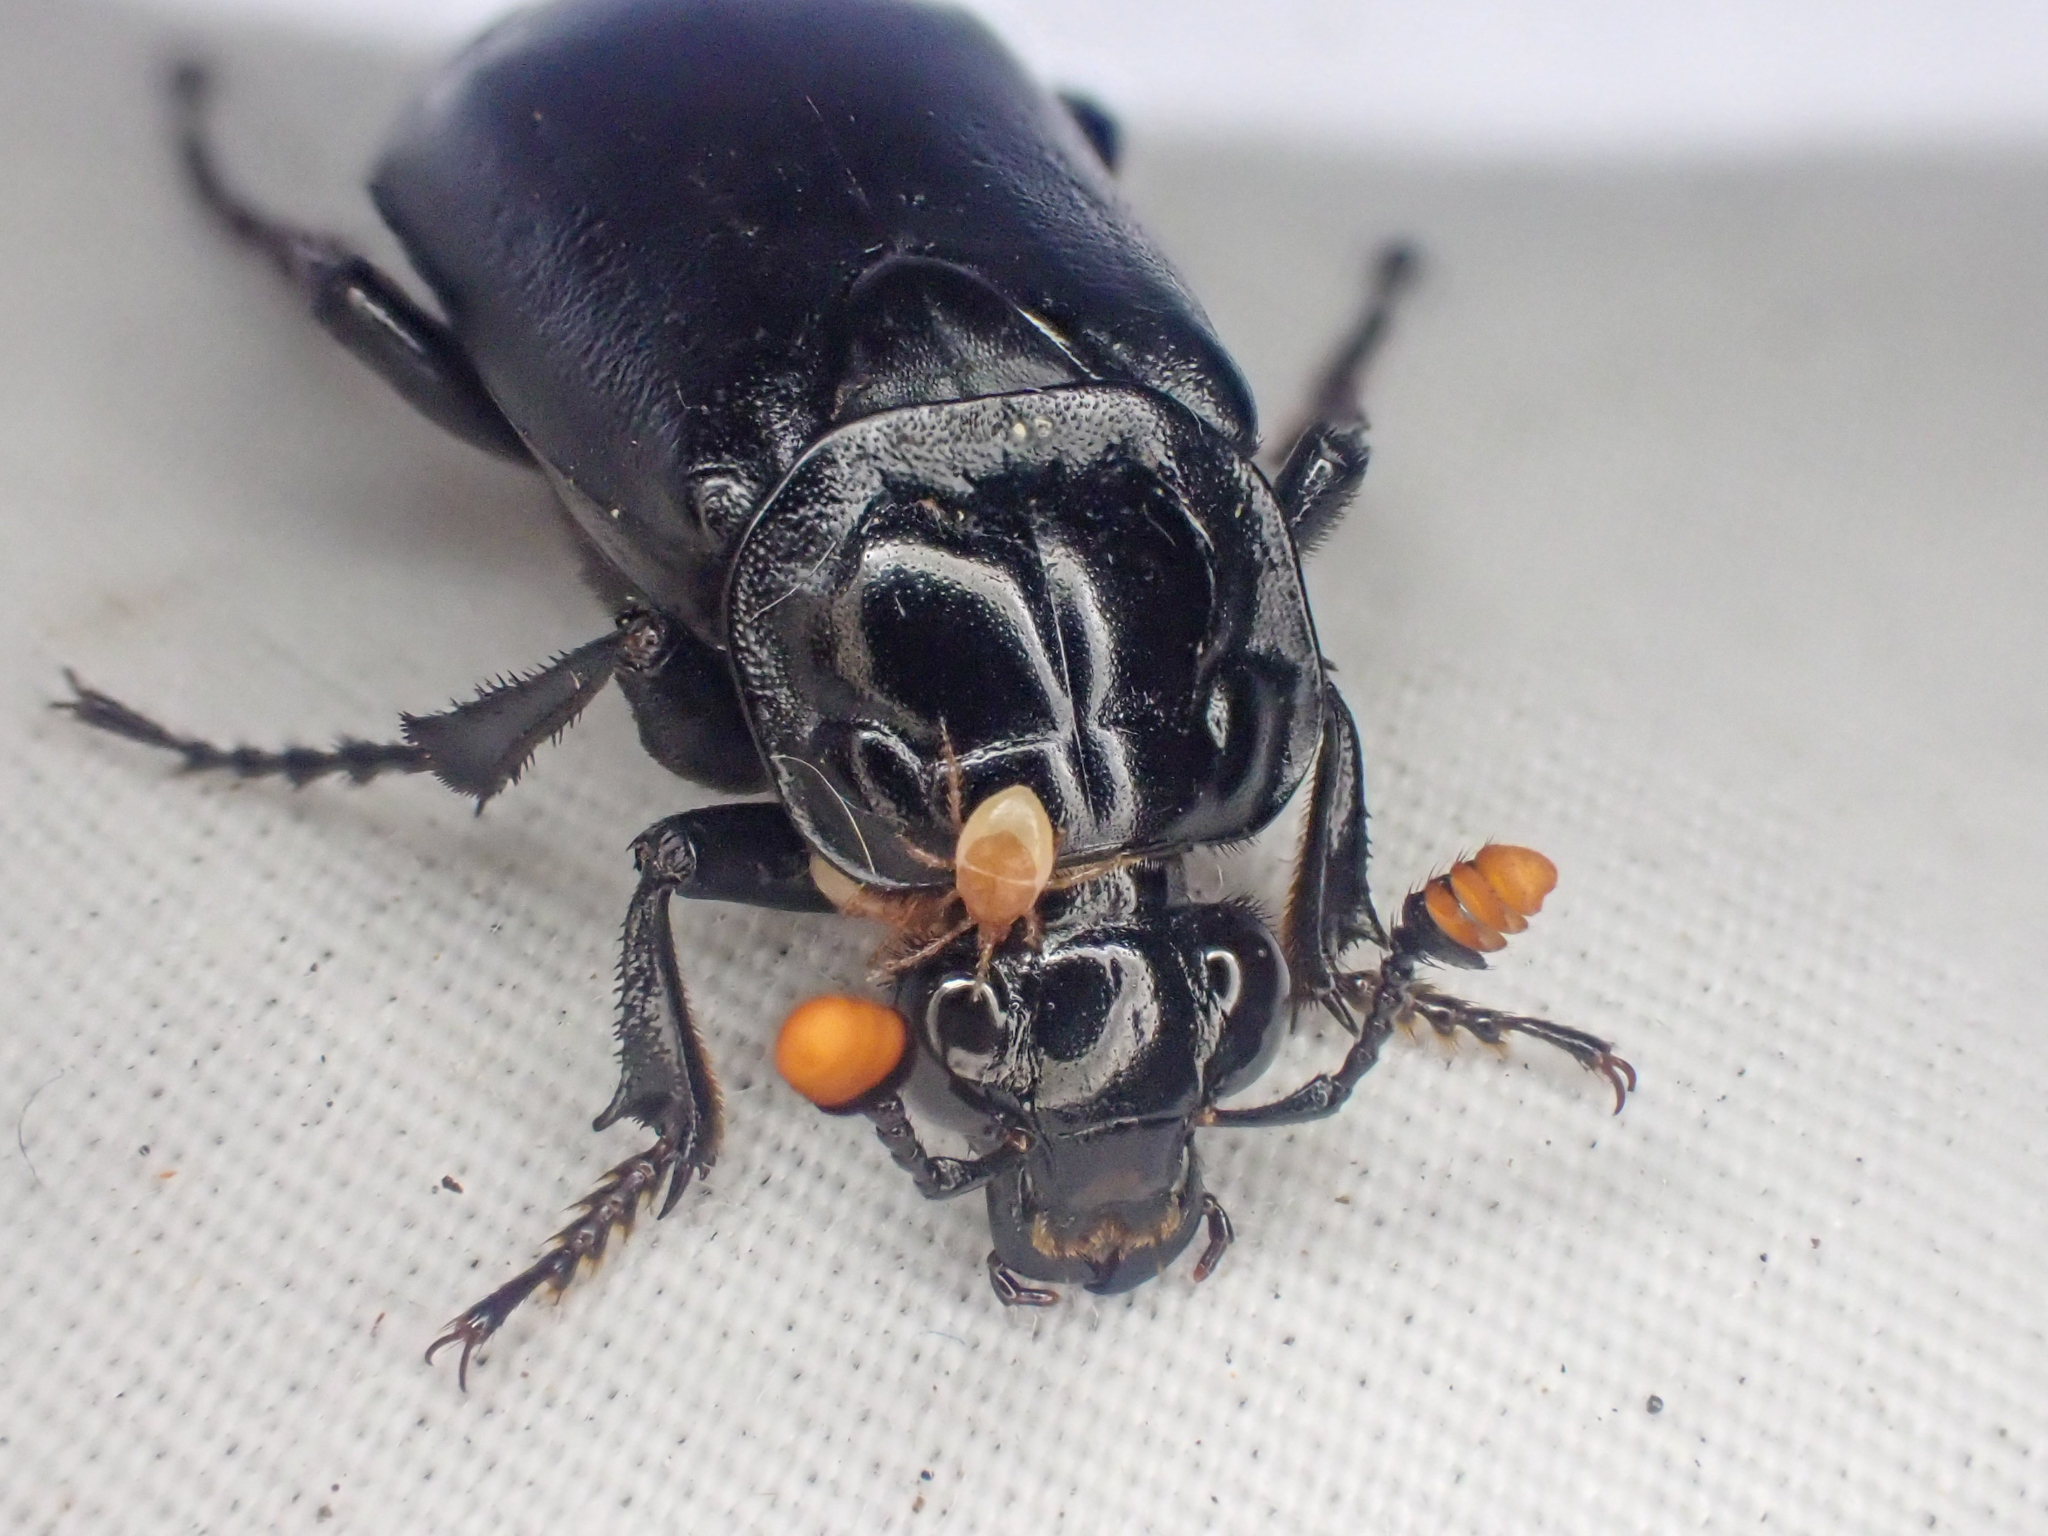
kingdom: Animalia
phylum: Arthropoda
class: Insecta
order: Coleoptera
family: Staphylinidae
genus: Nicrophorus
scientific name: Nicrophorus nigrita
